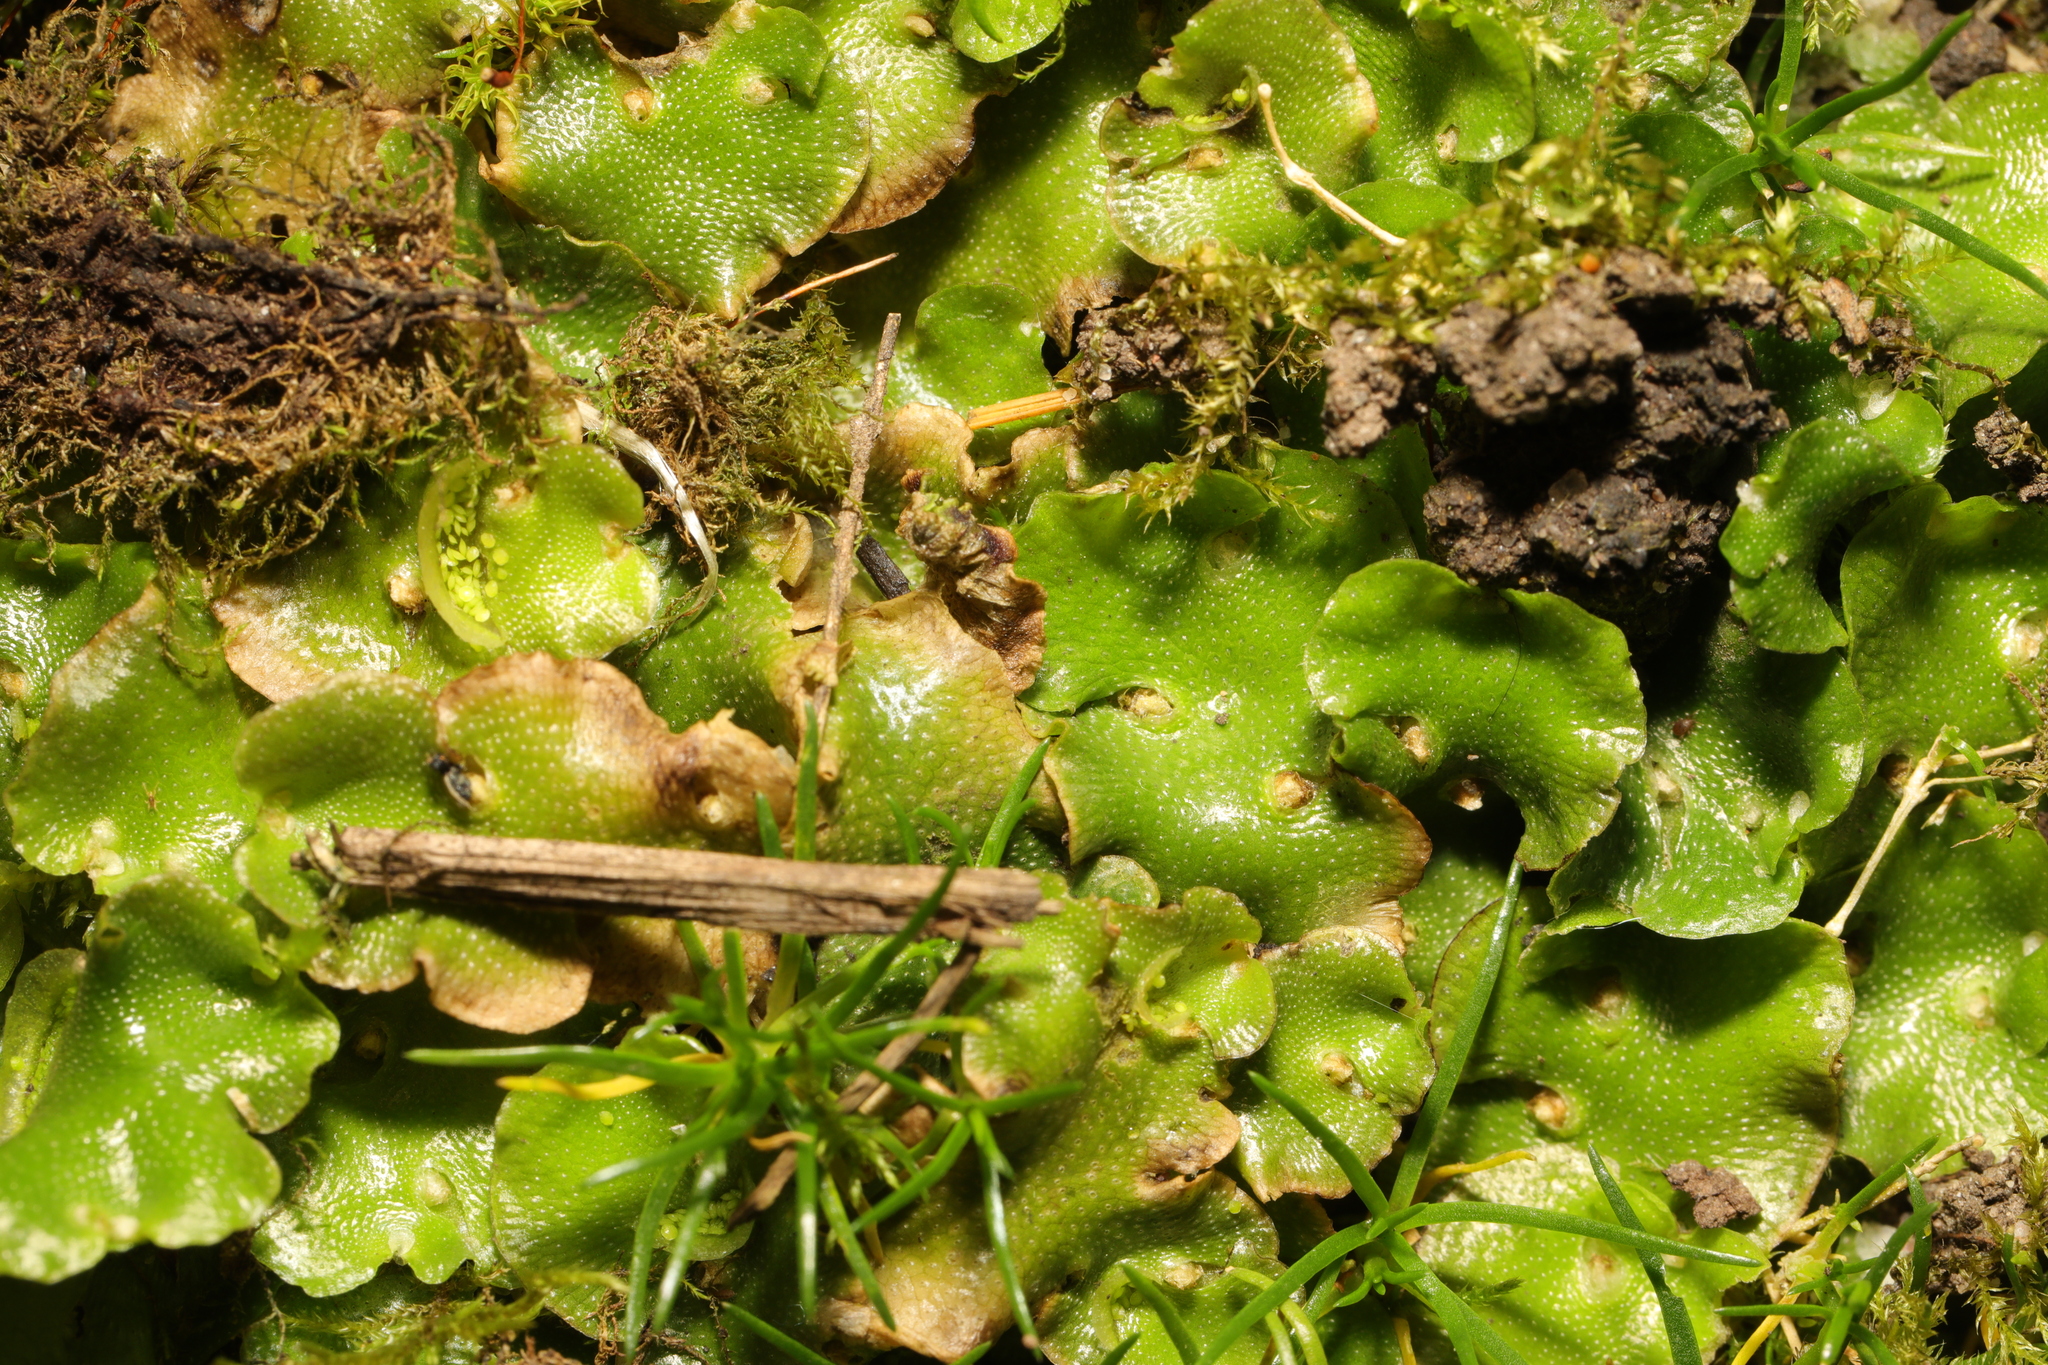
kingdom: Plantae
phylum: Marchantiophyta
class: Marchantiopsida
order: Lunulariales
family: Lunulariaceae
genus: Lunularia
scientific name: Lunularia cruciata
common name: Crescent-cup liverwort
